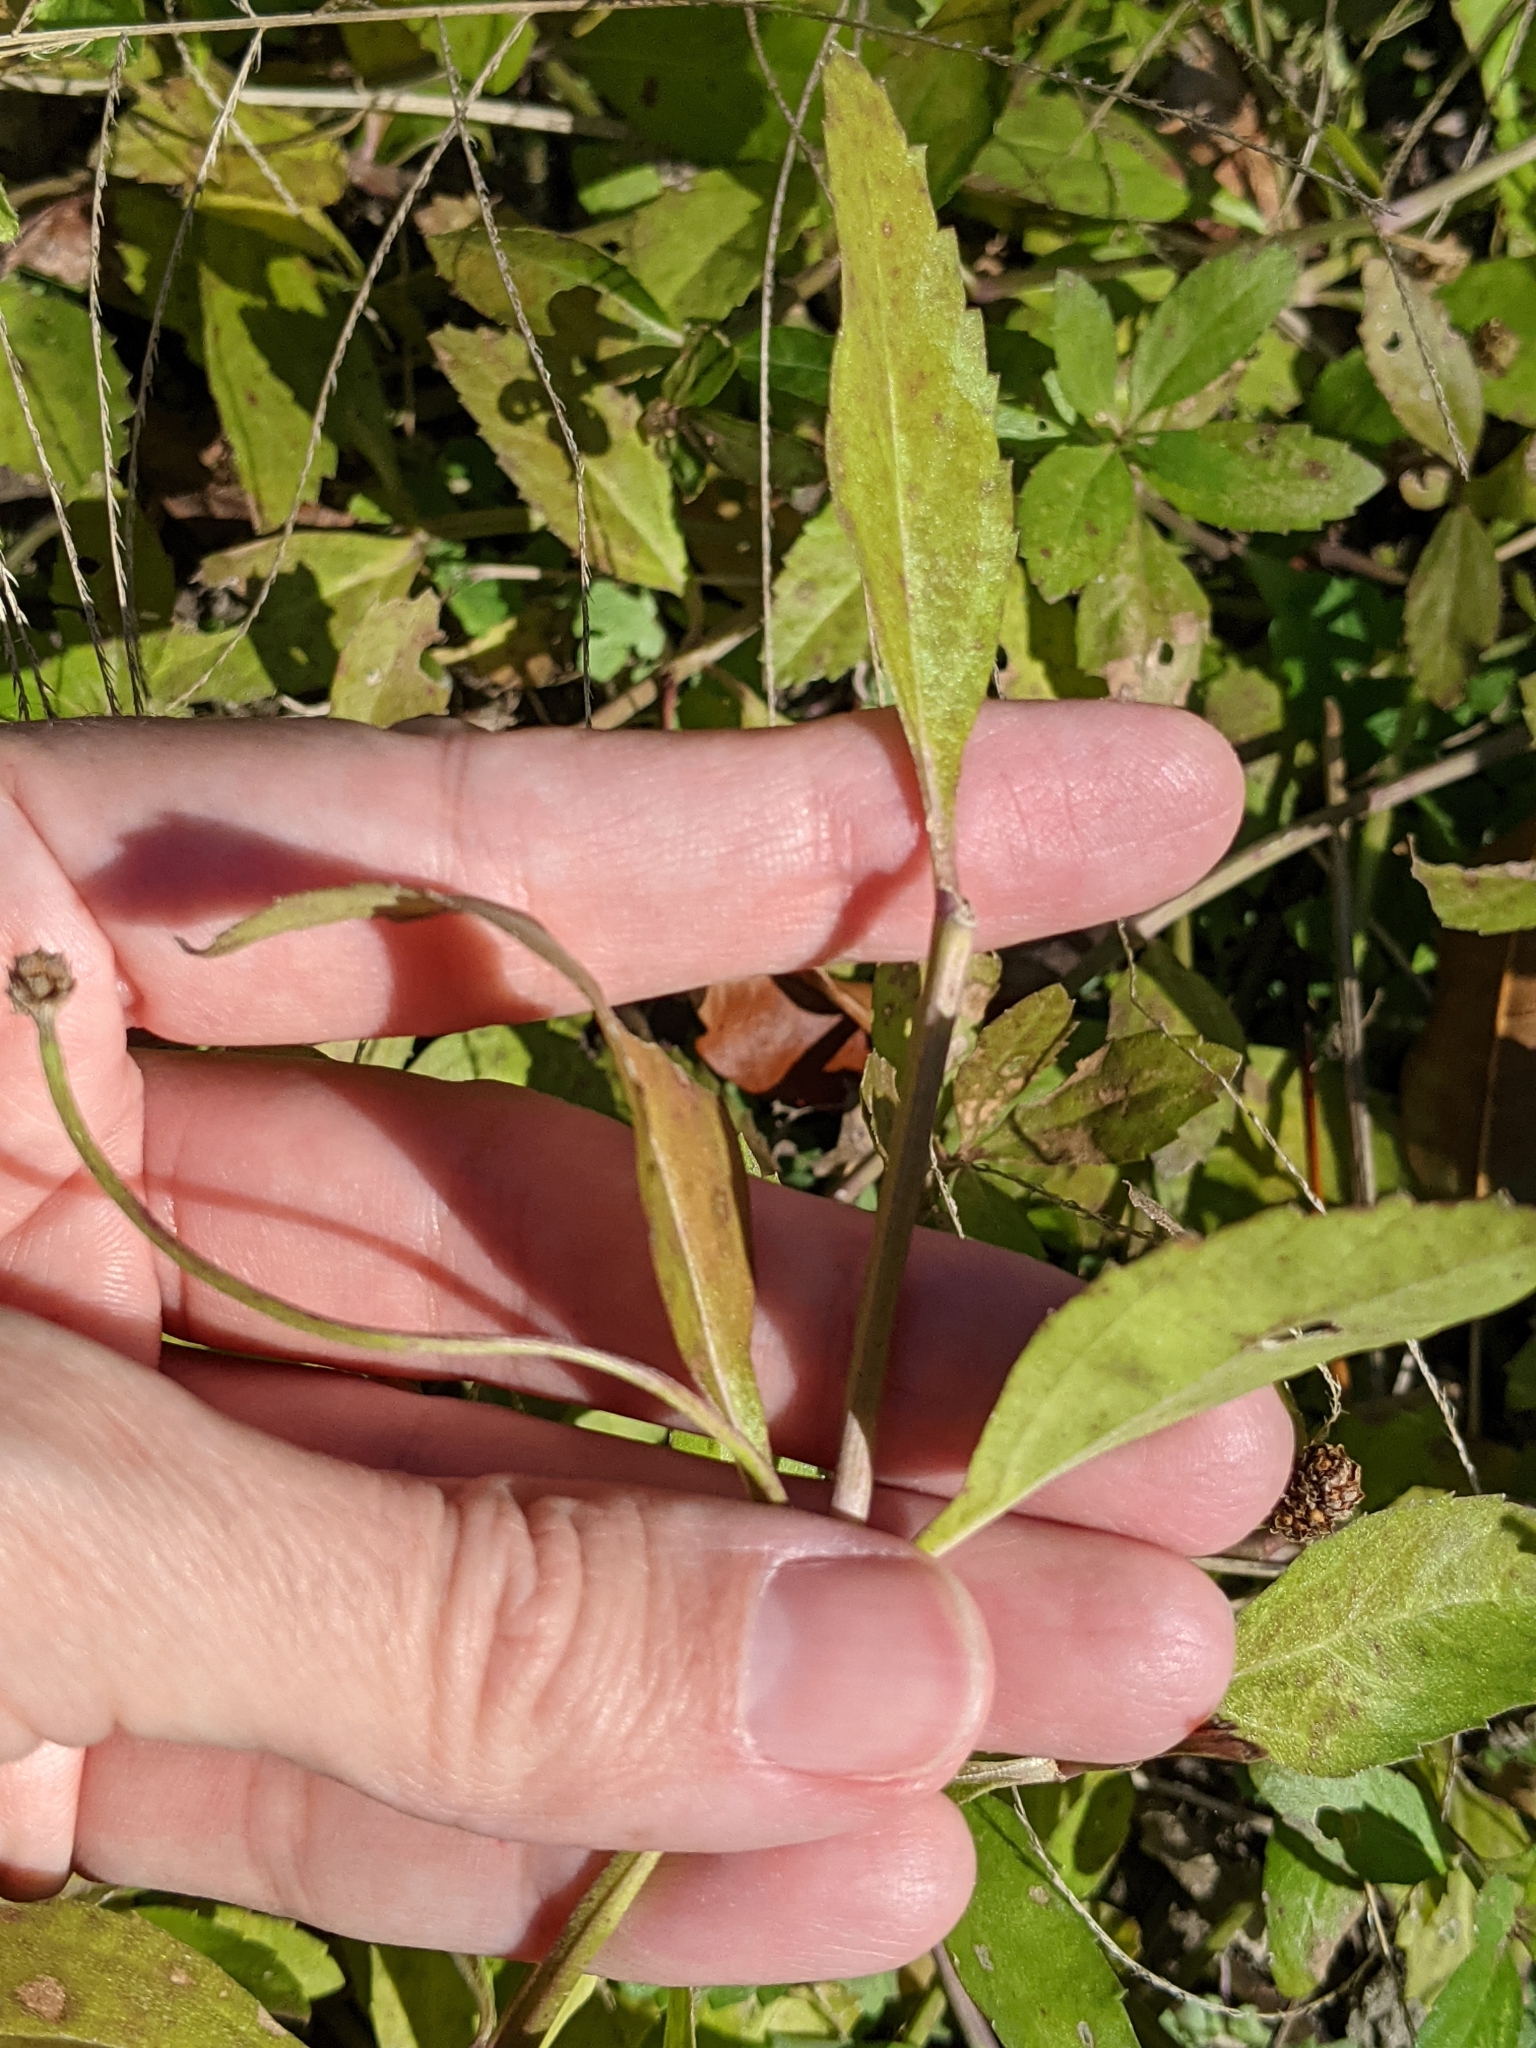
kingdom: Plantae
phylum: Tracheophyta
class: Magnoliopsida
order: Lamiales
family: Verbenaceae
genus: Phyla
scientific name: Phyla lanceolata
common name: Northern fogfruit
